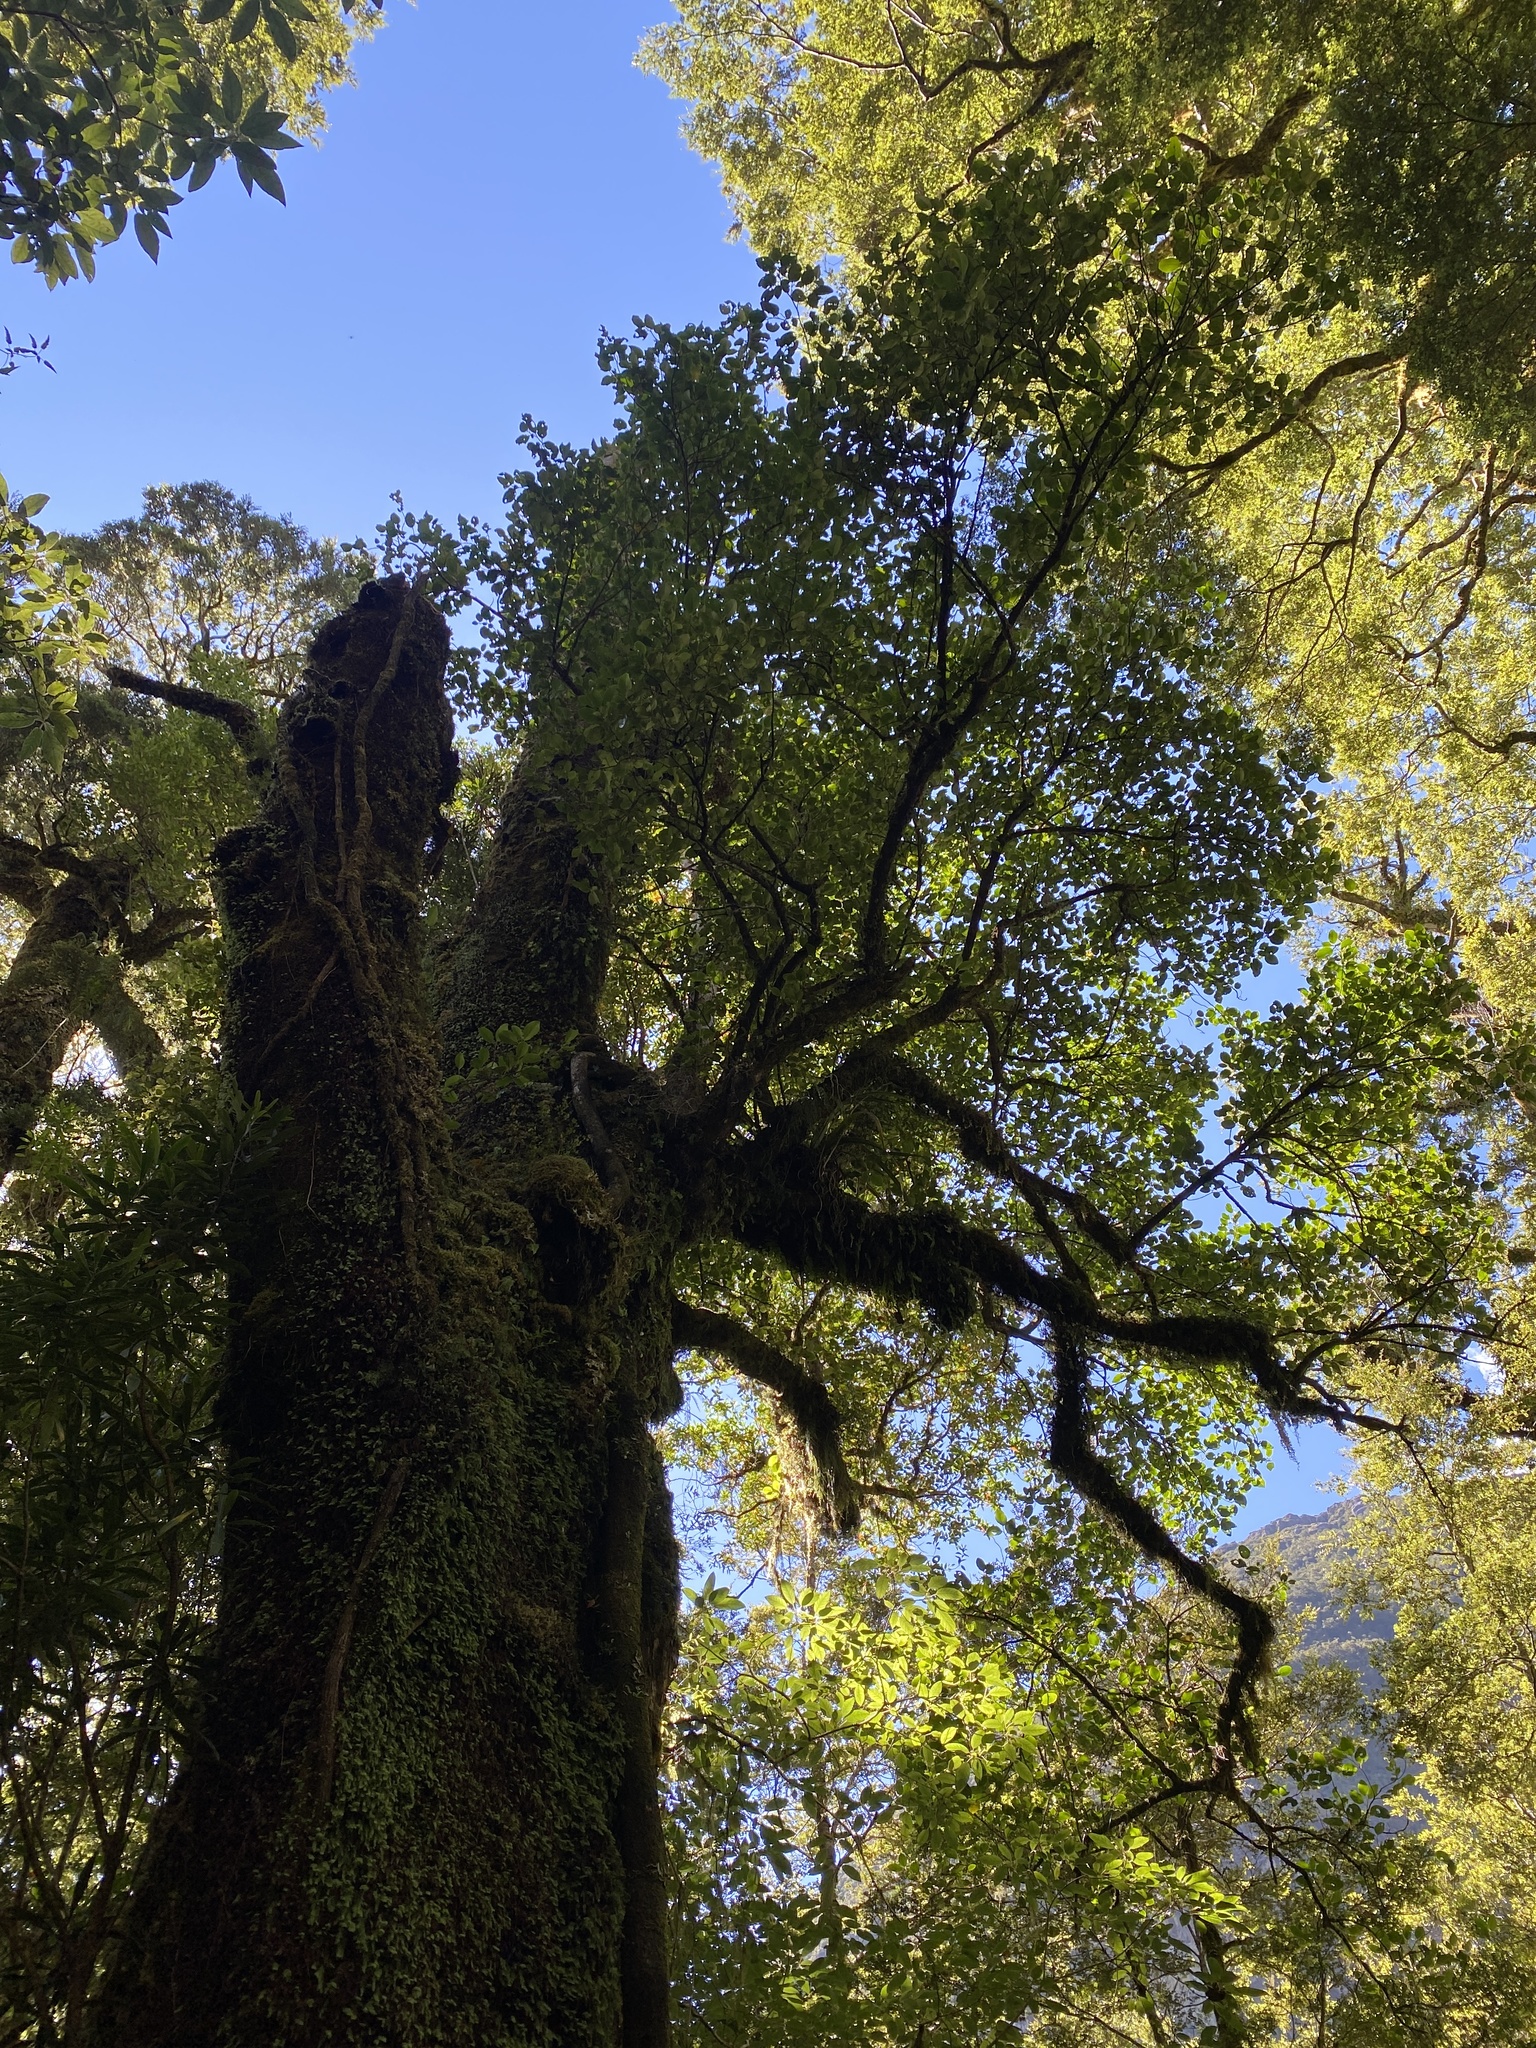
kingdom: Plantae
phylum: Tracheophyta
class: Magnoliopsida
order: Apiales
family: Griseliniaceae
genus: Griselinia
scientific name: Griselinia littoralis
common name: New zealand broadleaf
